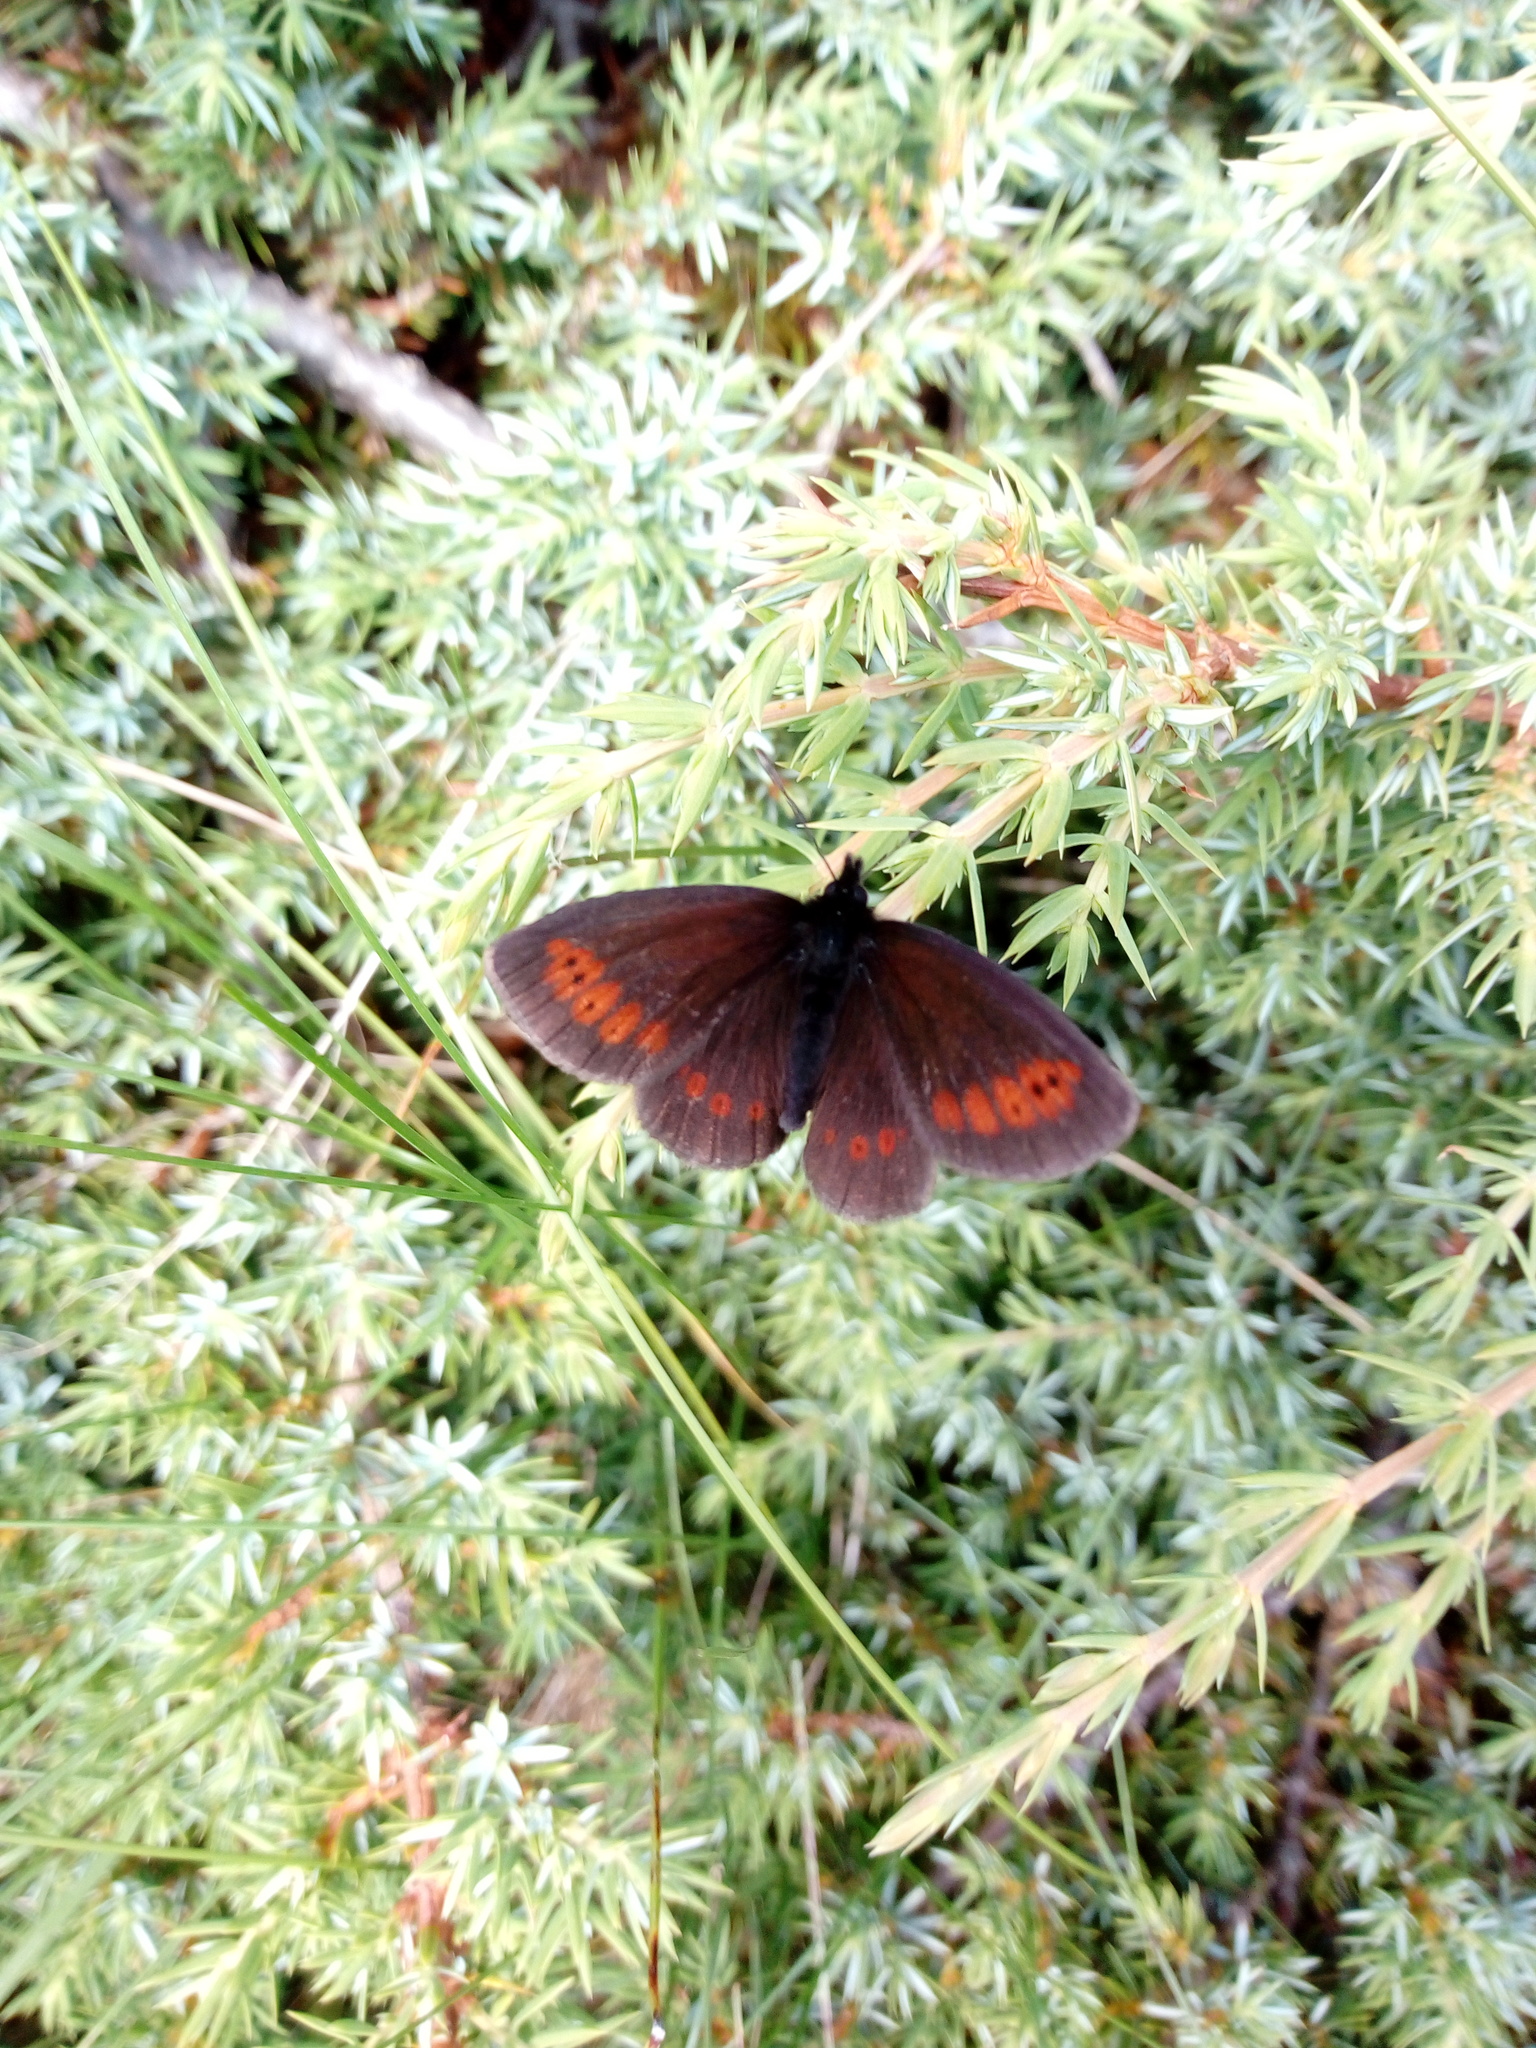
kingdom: Animalia
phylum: Arthropoda
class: Insecta
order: Lepidoptera
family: Nymphalidae
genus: Erebia
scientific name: Erebia alberganus
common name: Almond-eyed ringlet
